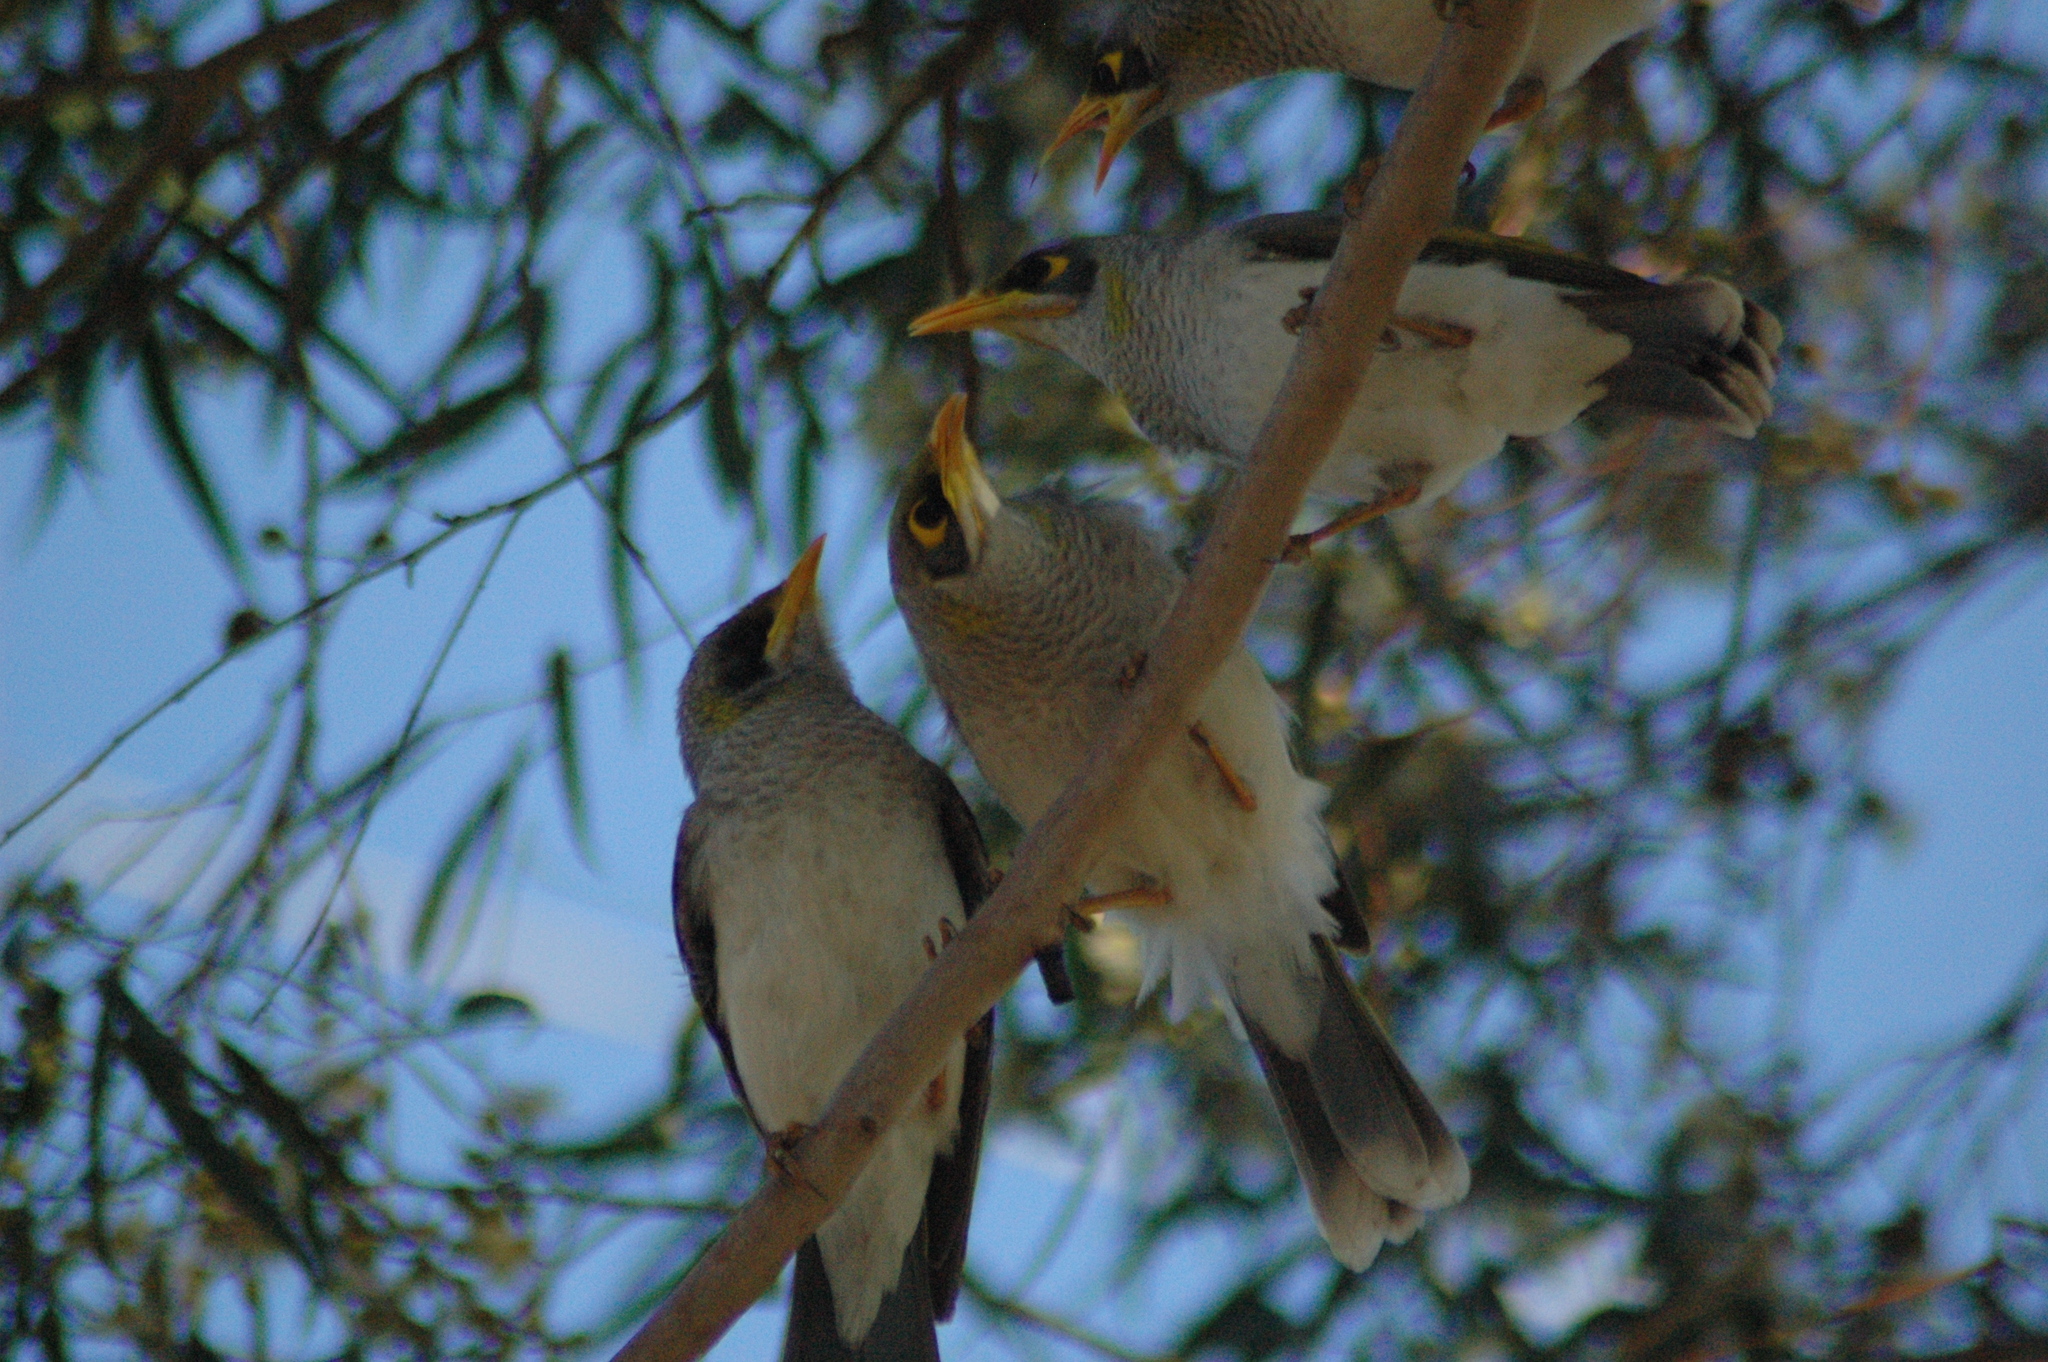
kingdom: Animalia
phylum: Chordata
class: Aves
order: Passeriformes
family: Meliphagidae
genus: Manorina
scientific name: Manorina flavigula
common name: Yellow-throated miner
